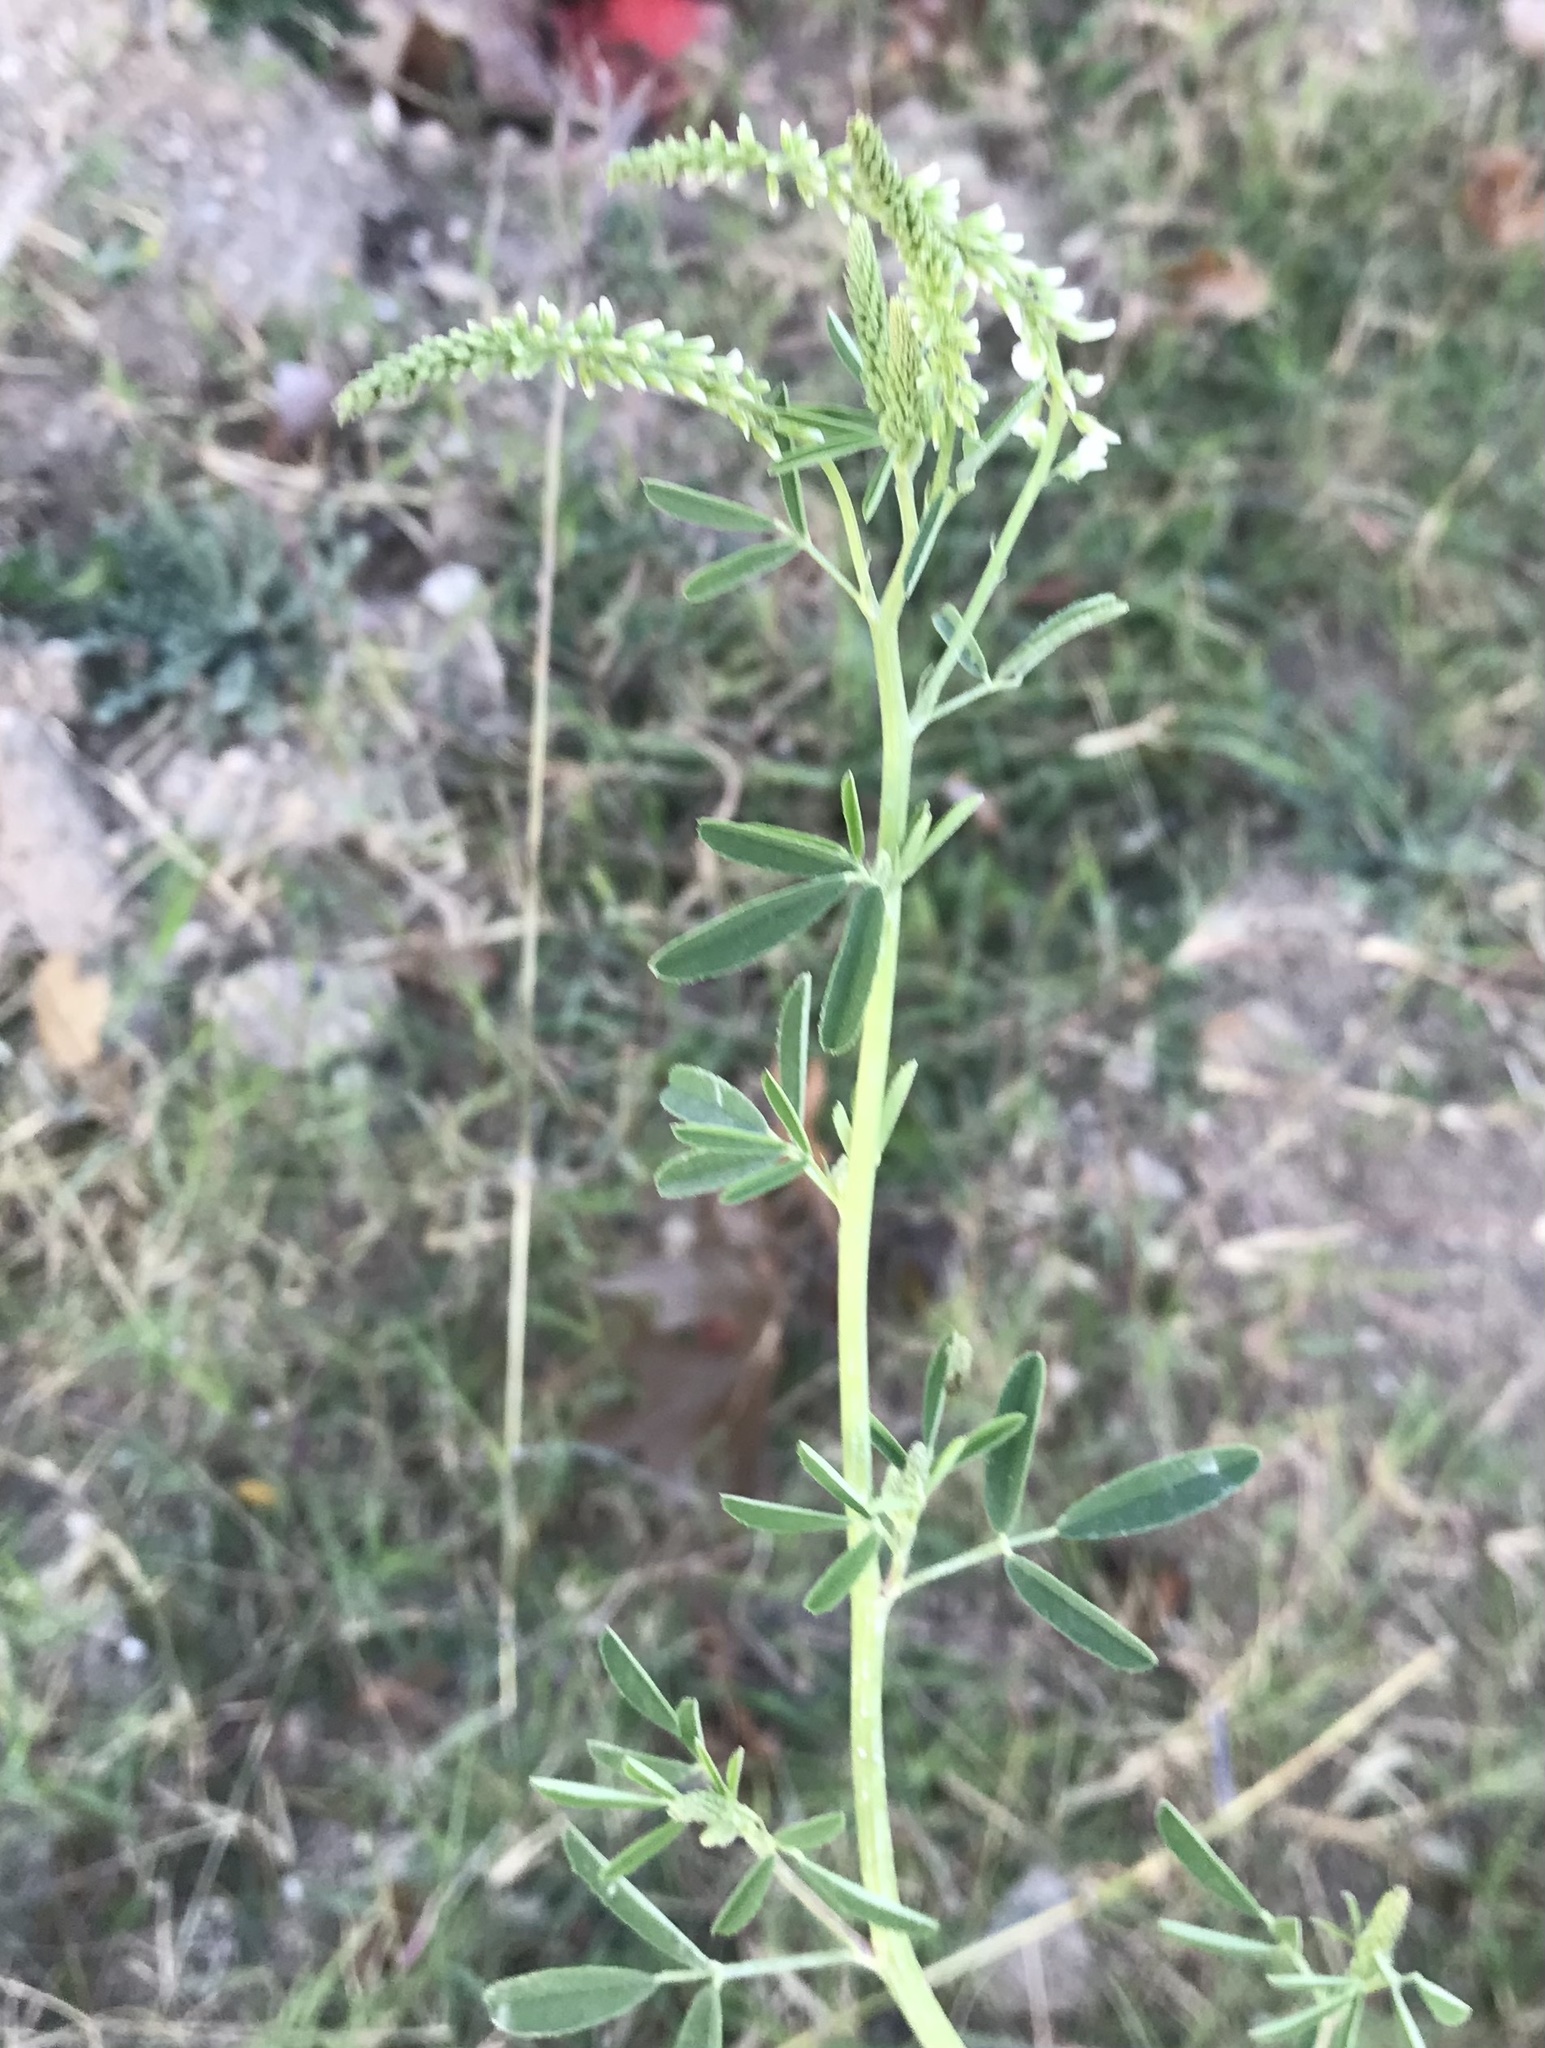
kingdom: Plantae
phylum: Tracheophyta
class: Magnoliopsida
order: Fabales
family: Fabaceae
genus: Melilotus
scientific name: Melilotus albus
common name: White melilot
